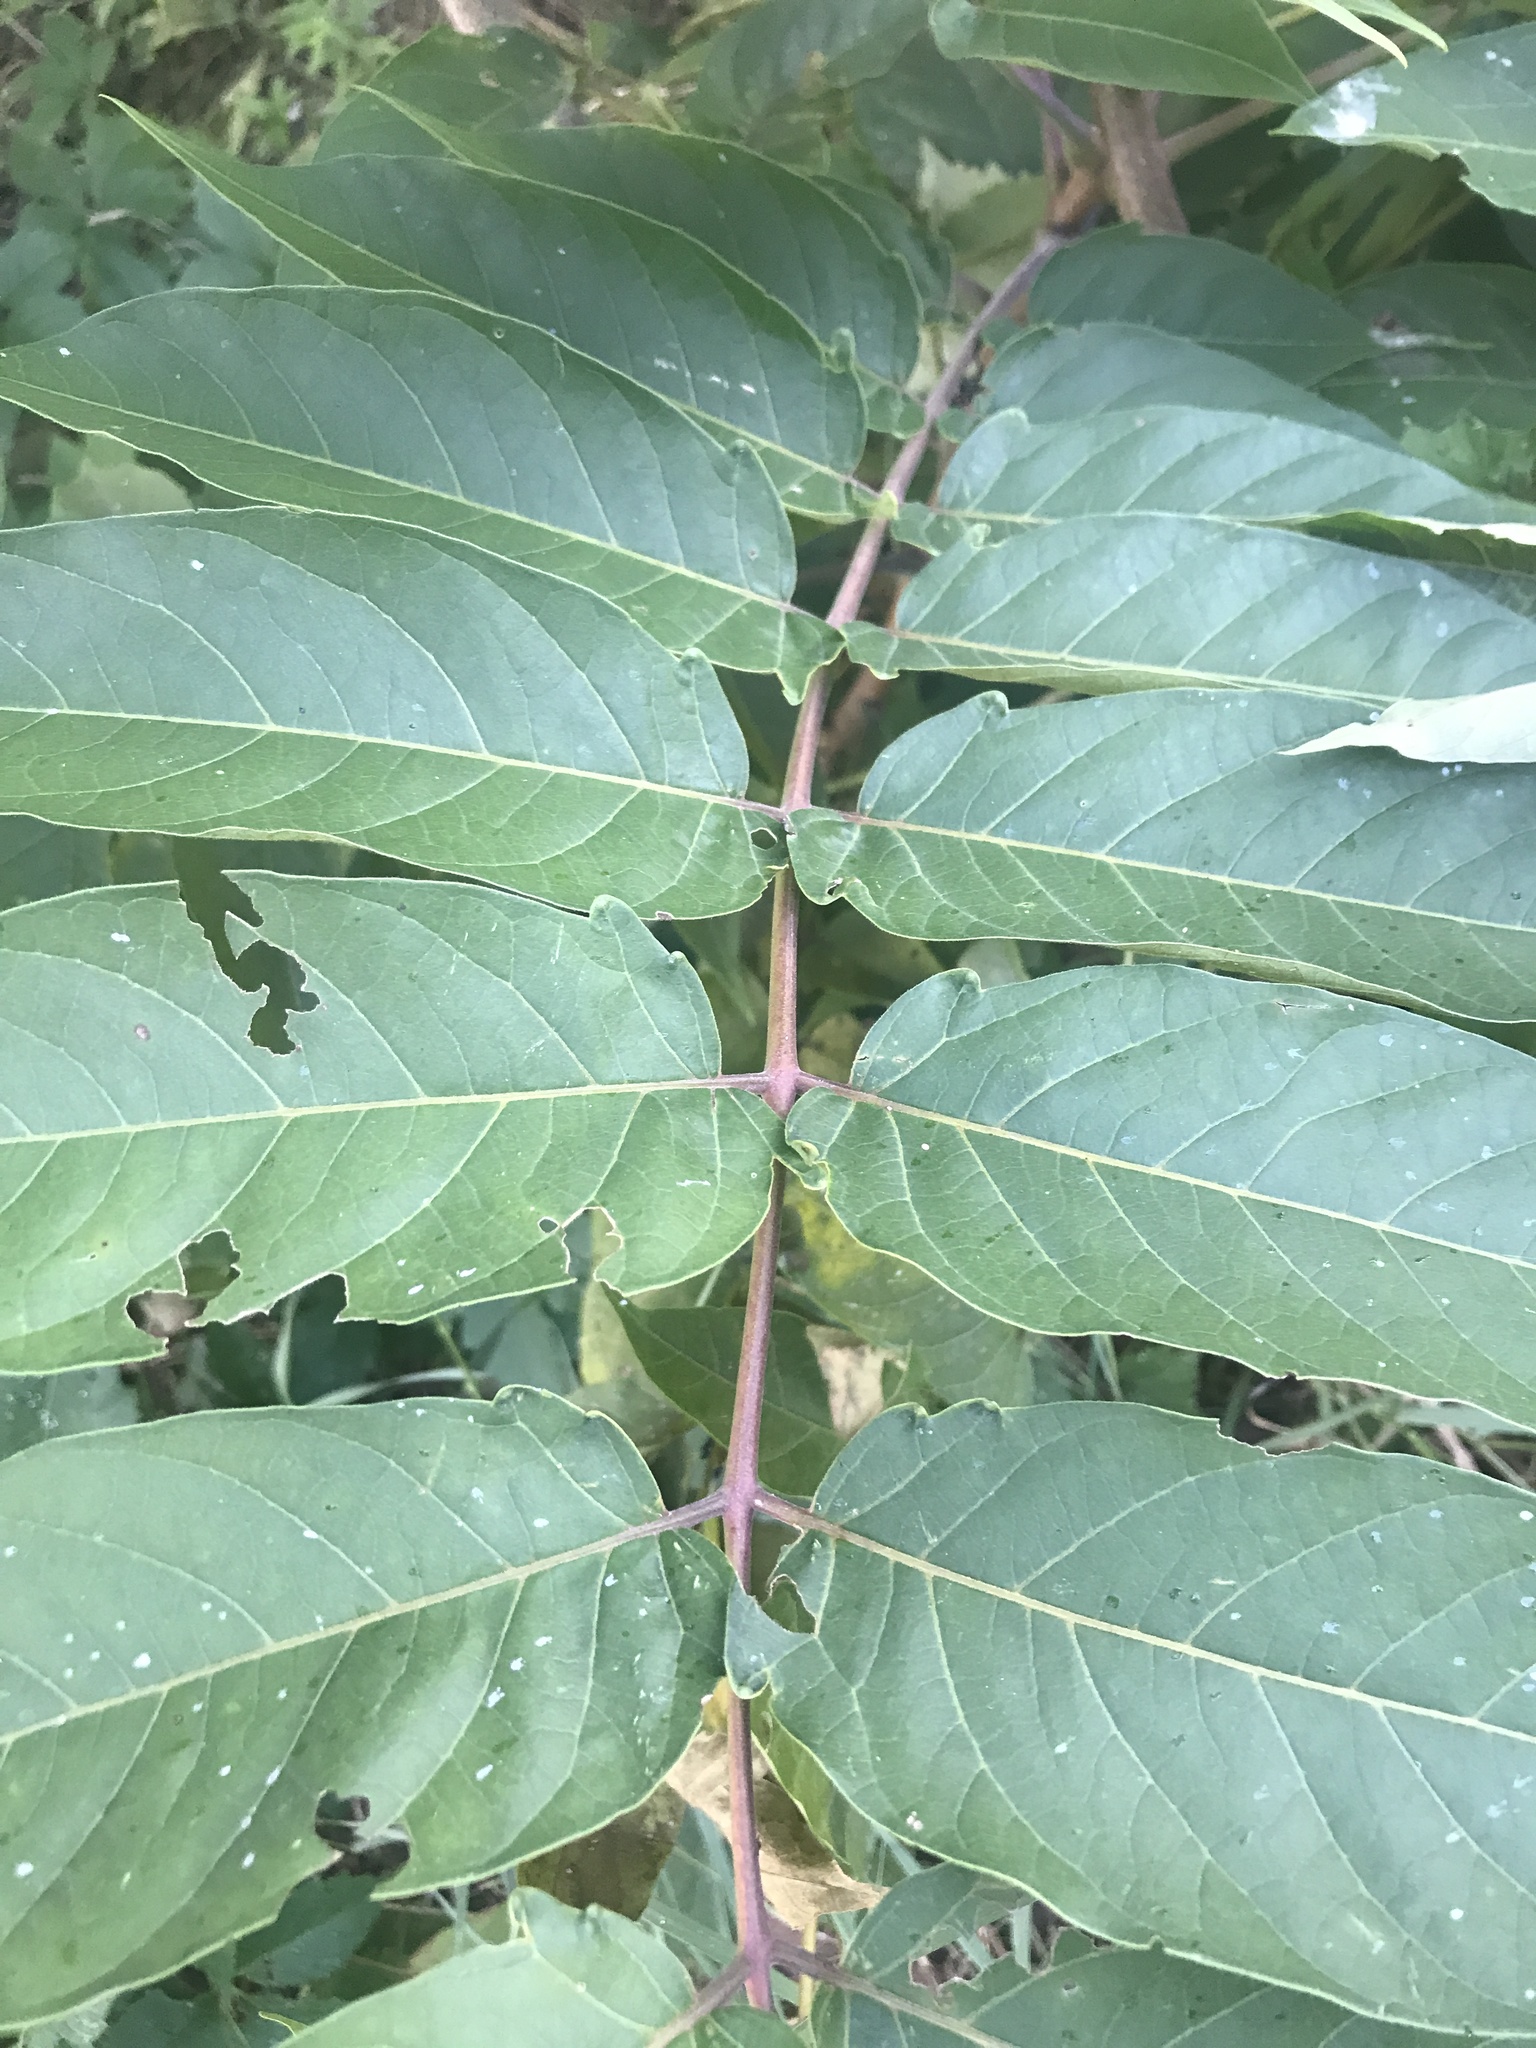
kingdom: Plantae
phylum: Tracheophyta
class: Magnoliopsida
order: Sapindales
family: Simaroubaceae
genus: Ailanthus
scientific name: Ailanthus altissima
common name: Tree-of-heaven
